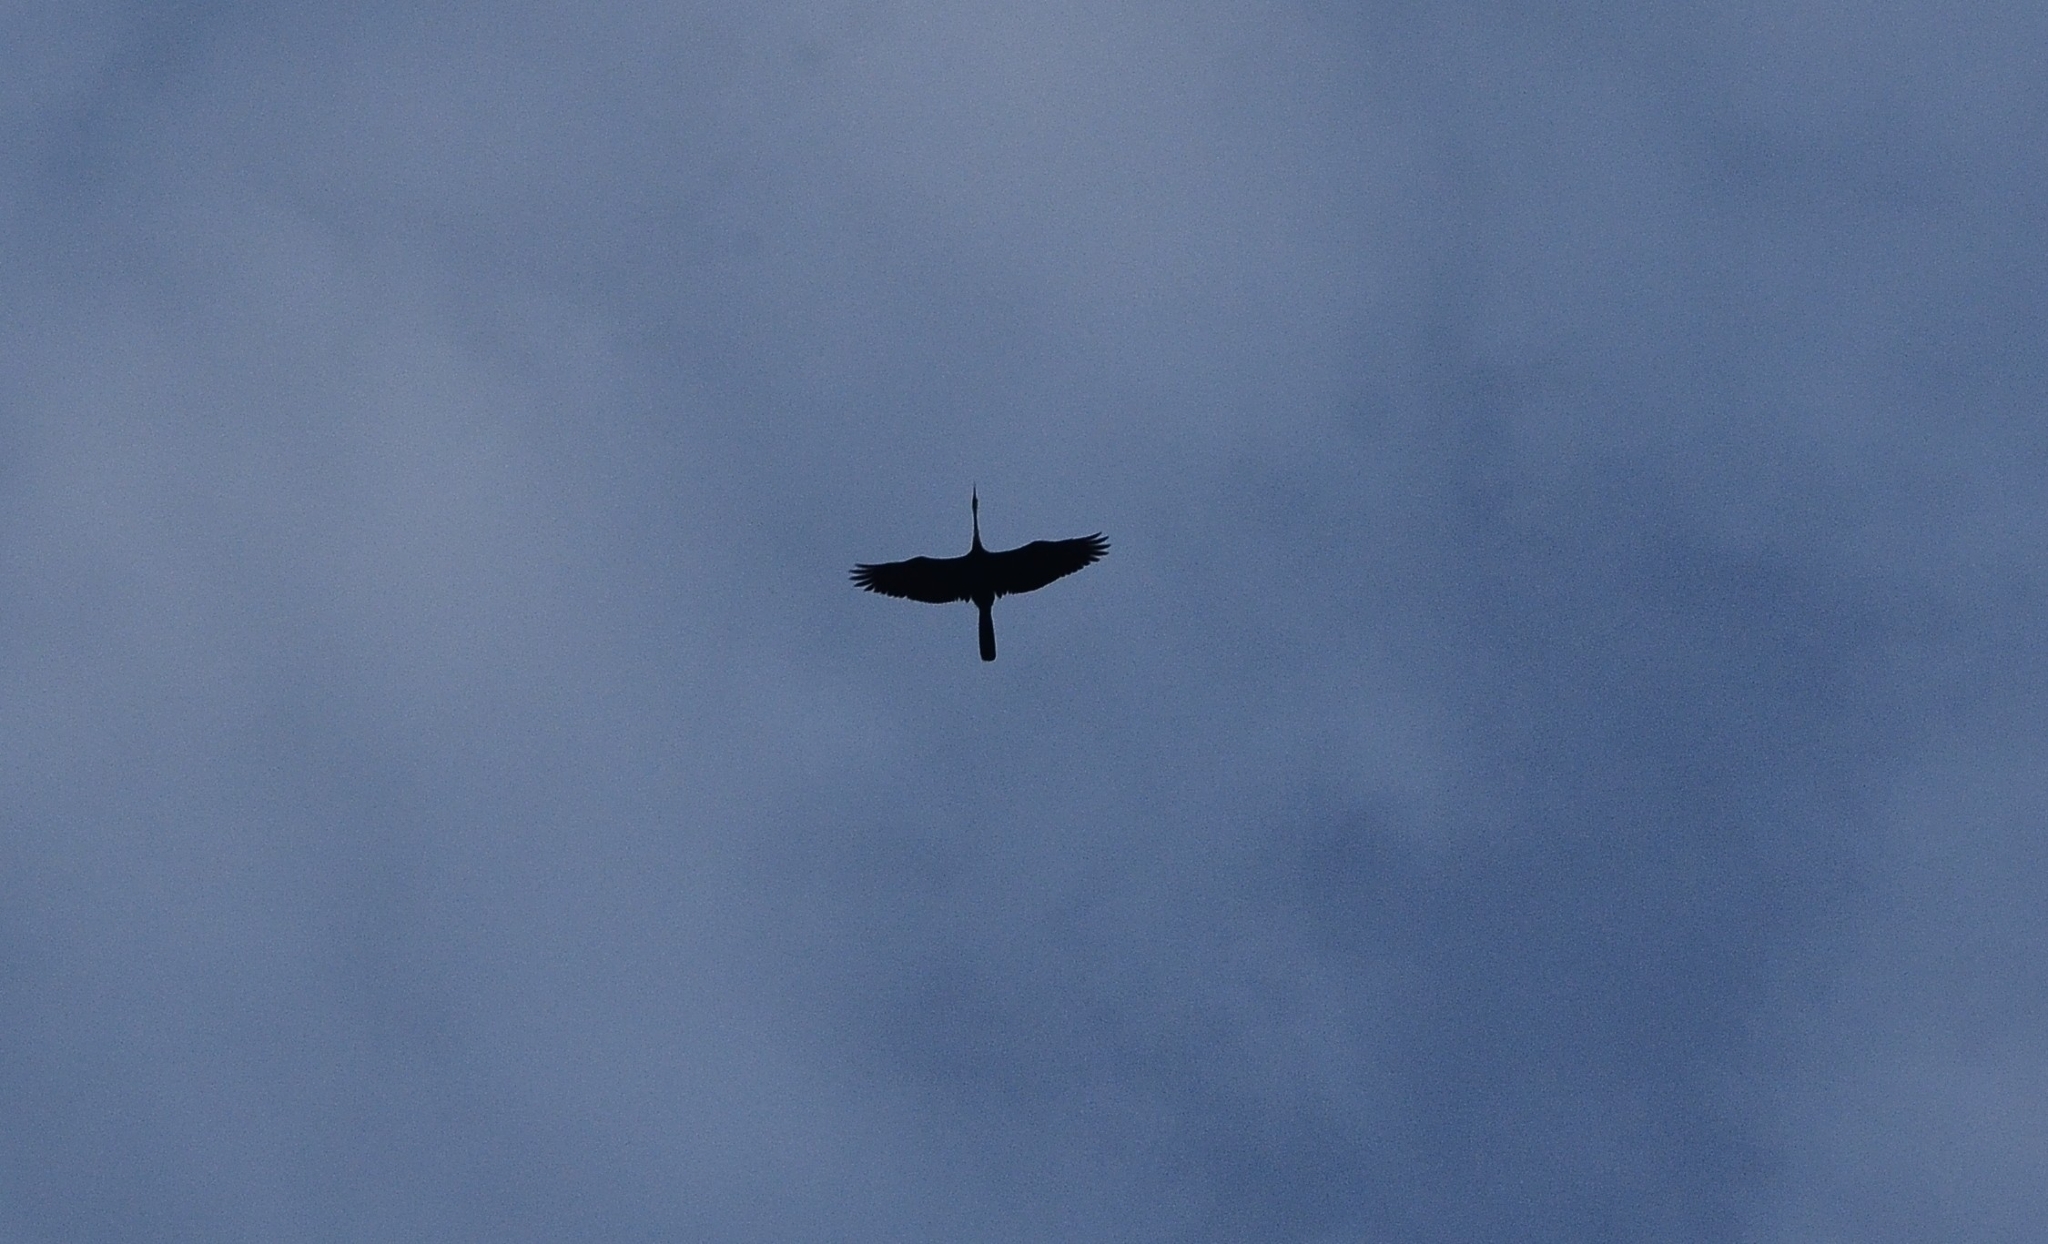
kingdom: Animalia
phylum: Chordata
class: Aves
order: Suliformes
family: Anhingidae
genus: Anhinga
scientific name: Anhinga melanogaster
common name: Oriental darter
